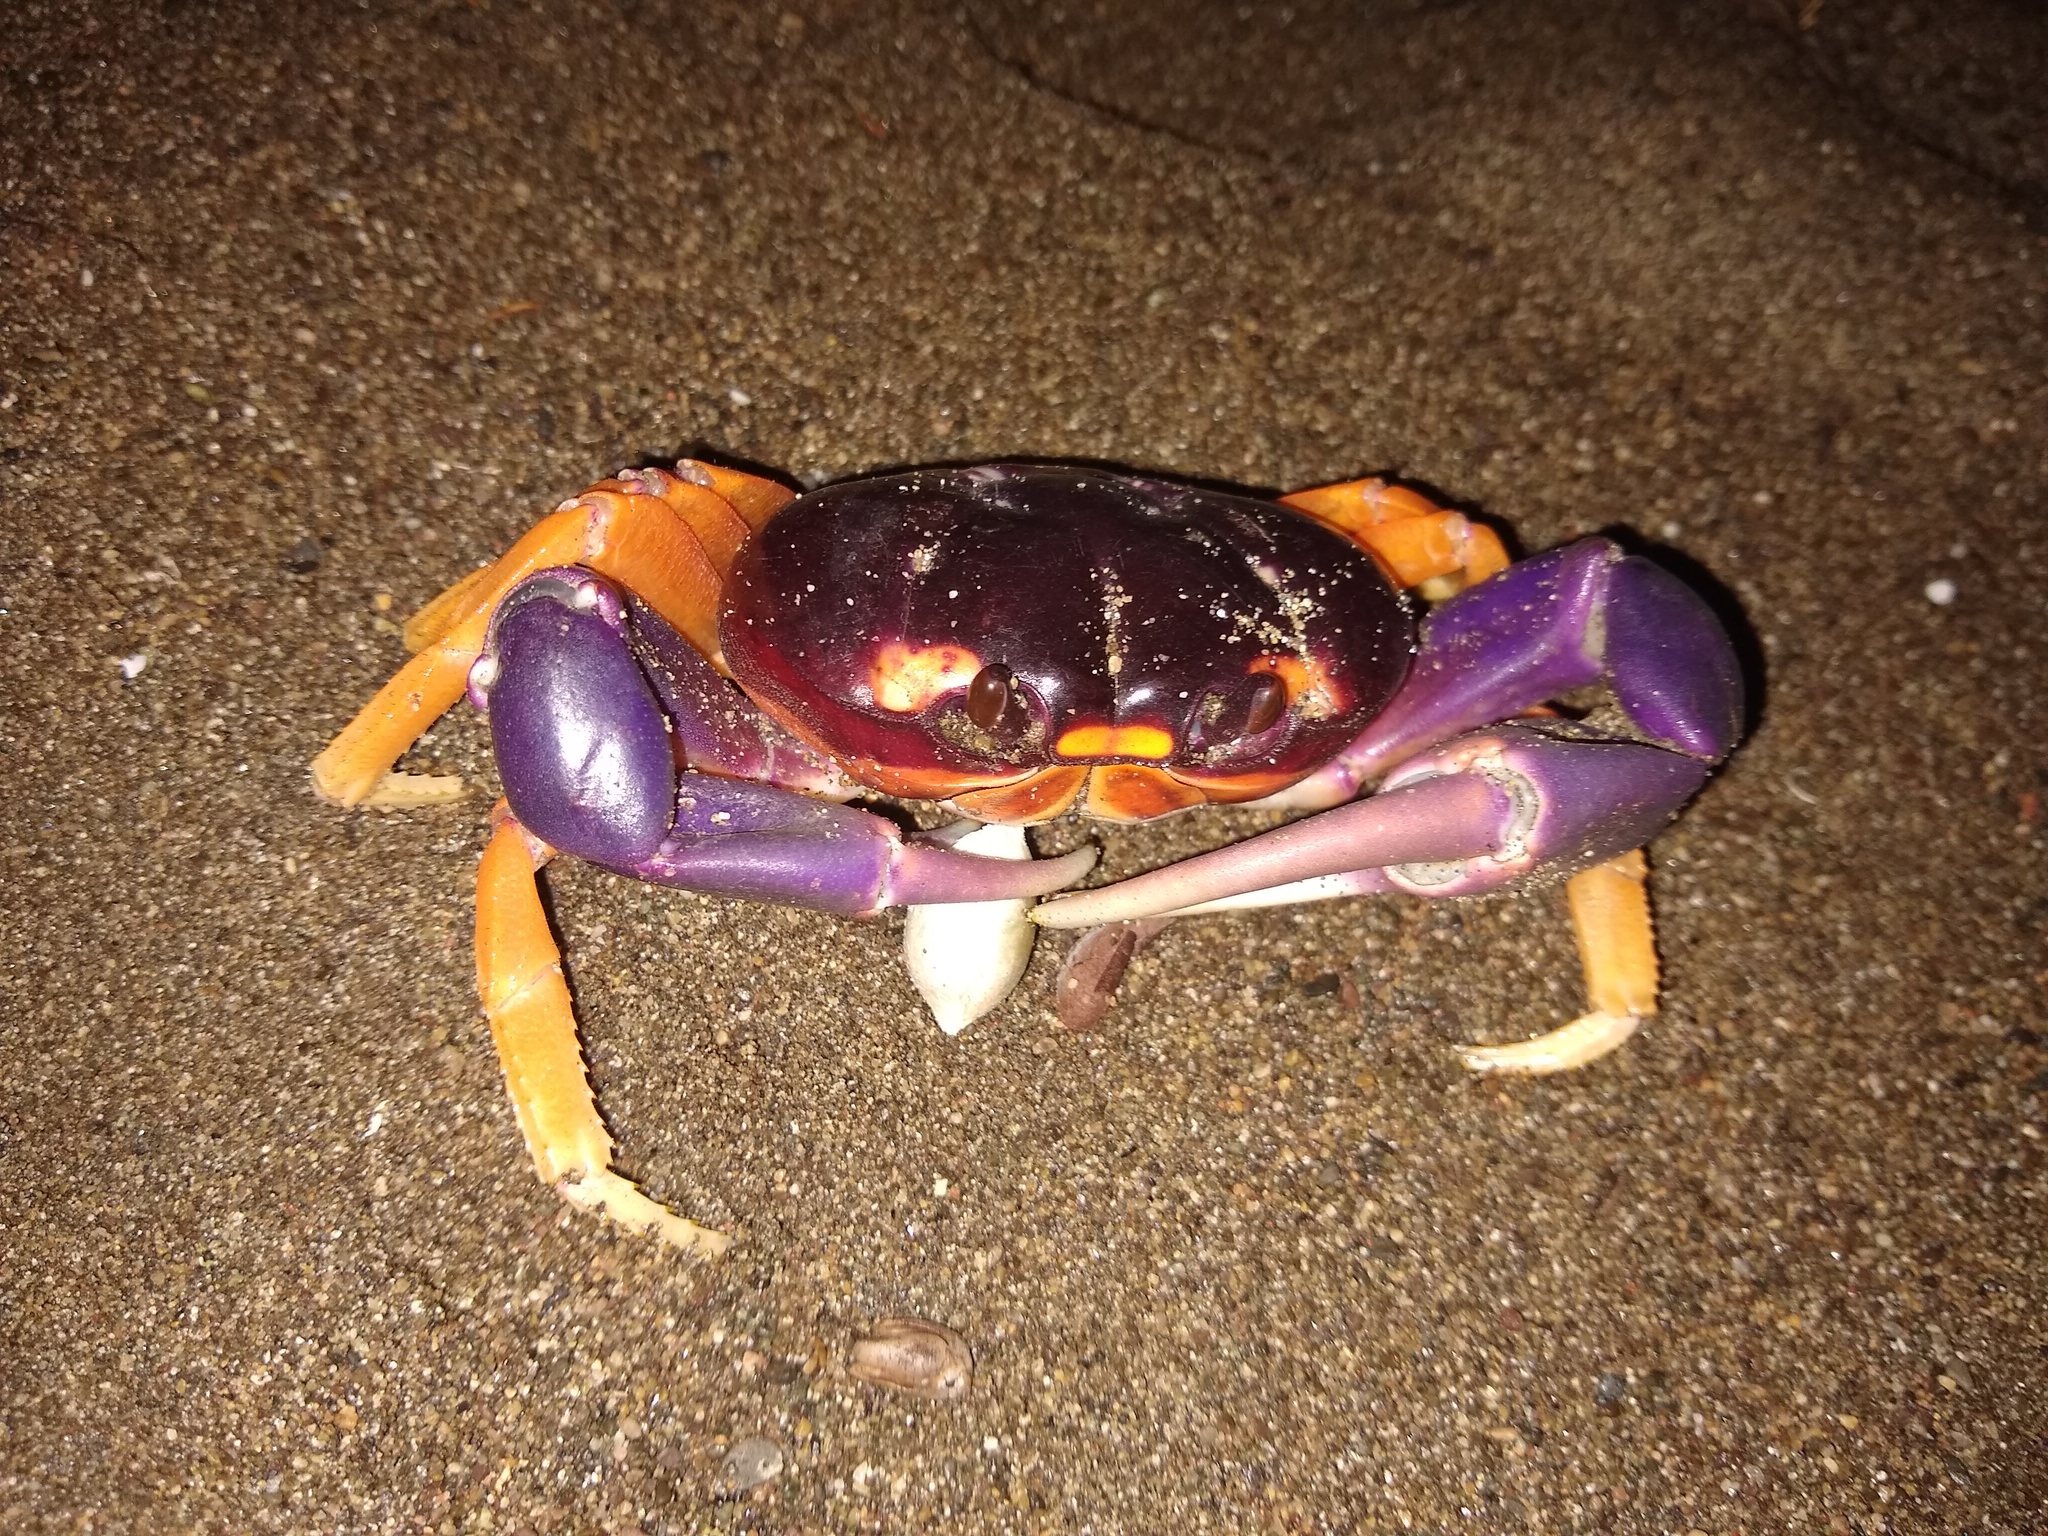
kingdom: Animalia
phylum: Arthropoda
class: Malacostraca
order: Decapoda
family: Gecarcinidae
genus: Gecarcinus
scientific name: Gecarcinus quadratus
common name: Halloween crab
